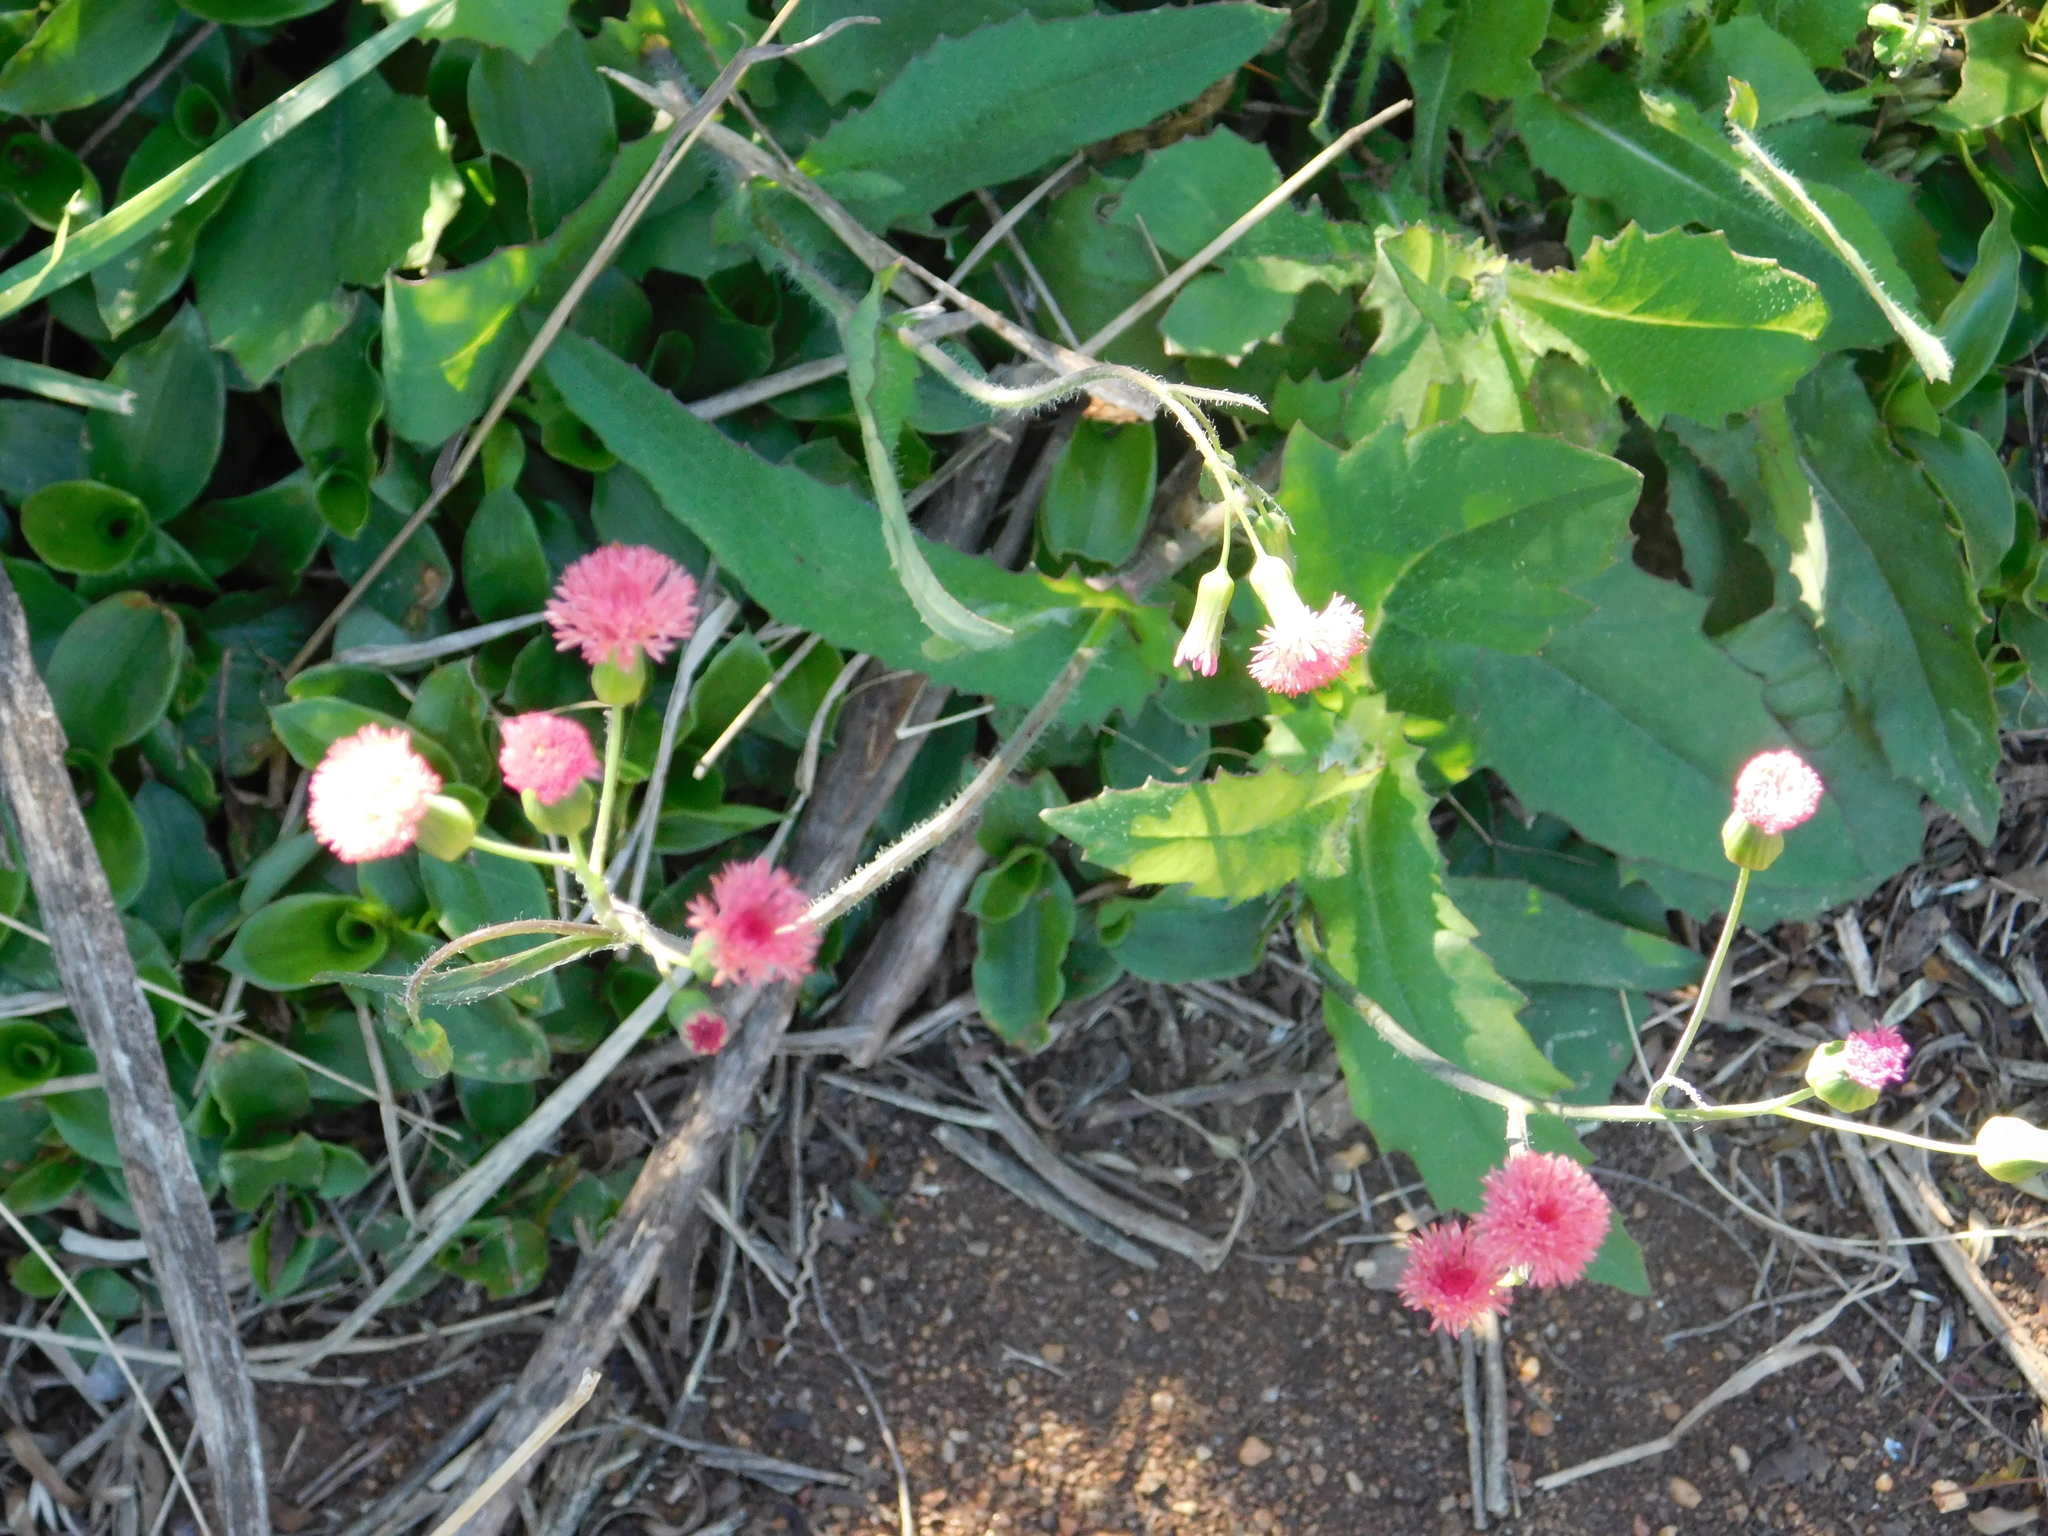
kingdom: Plantae
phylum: Tracheophyta
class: Magnoliopsida
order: Asterales
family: Asteraceae
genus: Emilia
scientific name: Emilia fosbergii
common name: Florida tasselflower
